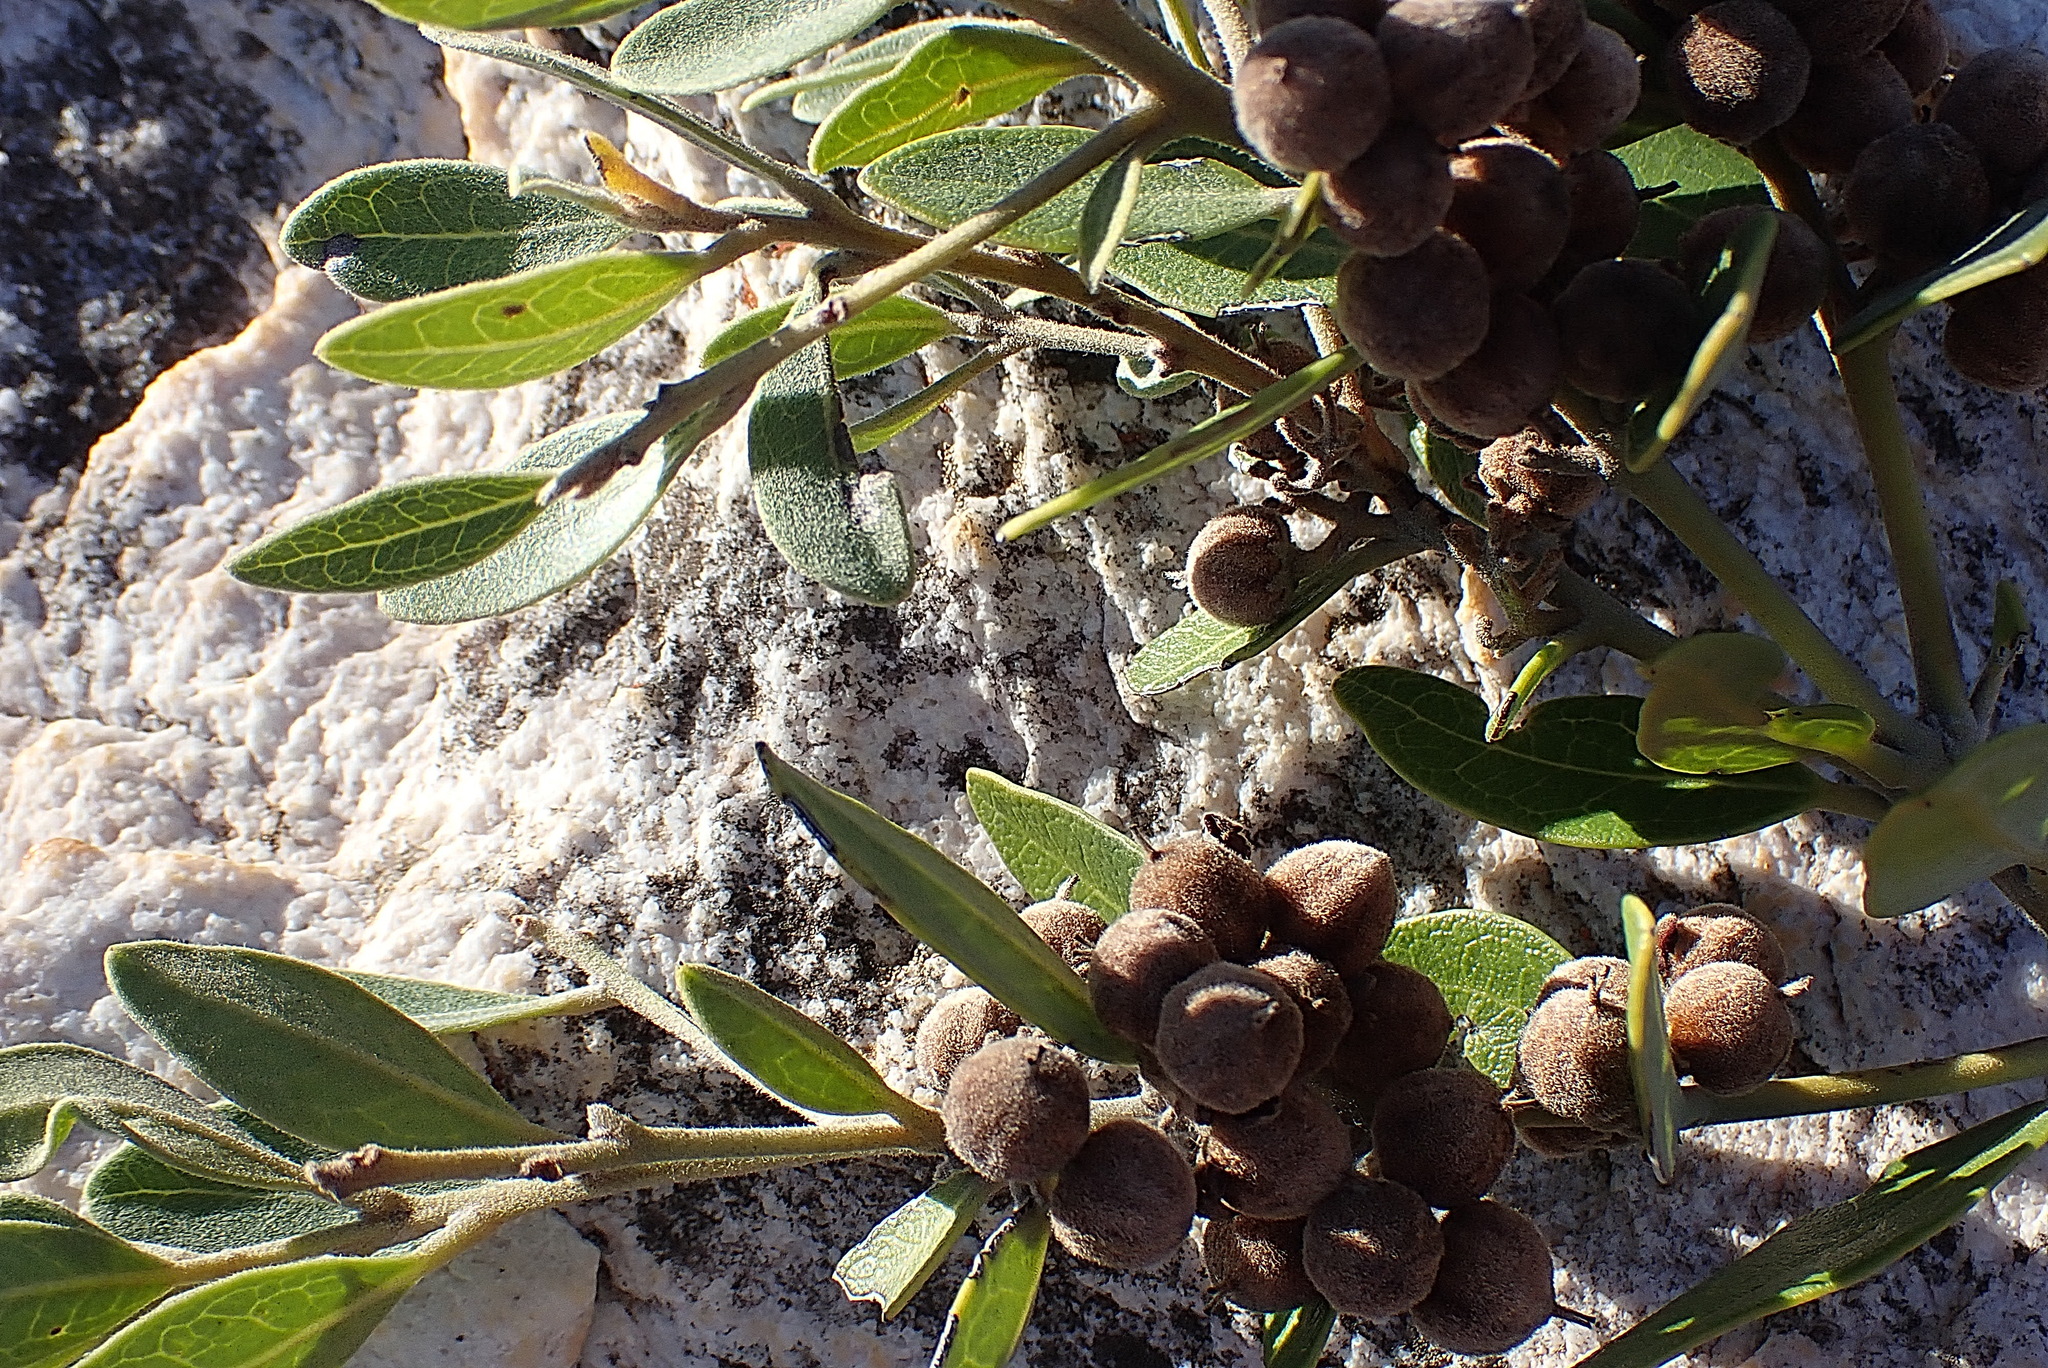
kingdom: Plantae
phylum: Tracheophyta
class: Magnoliopsida
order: Ericales
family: Ebenaceae
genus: Euclea
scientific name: Euclea polyandra
